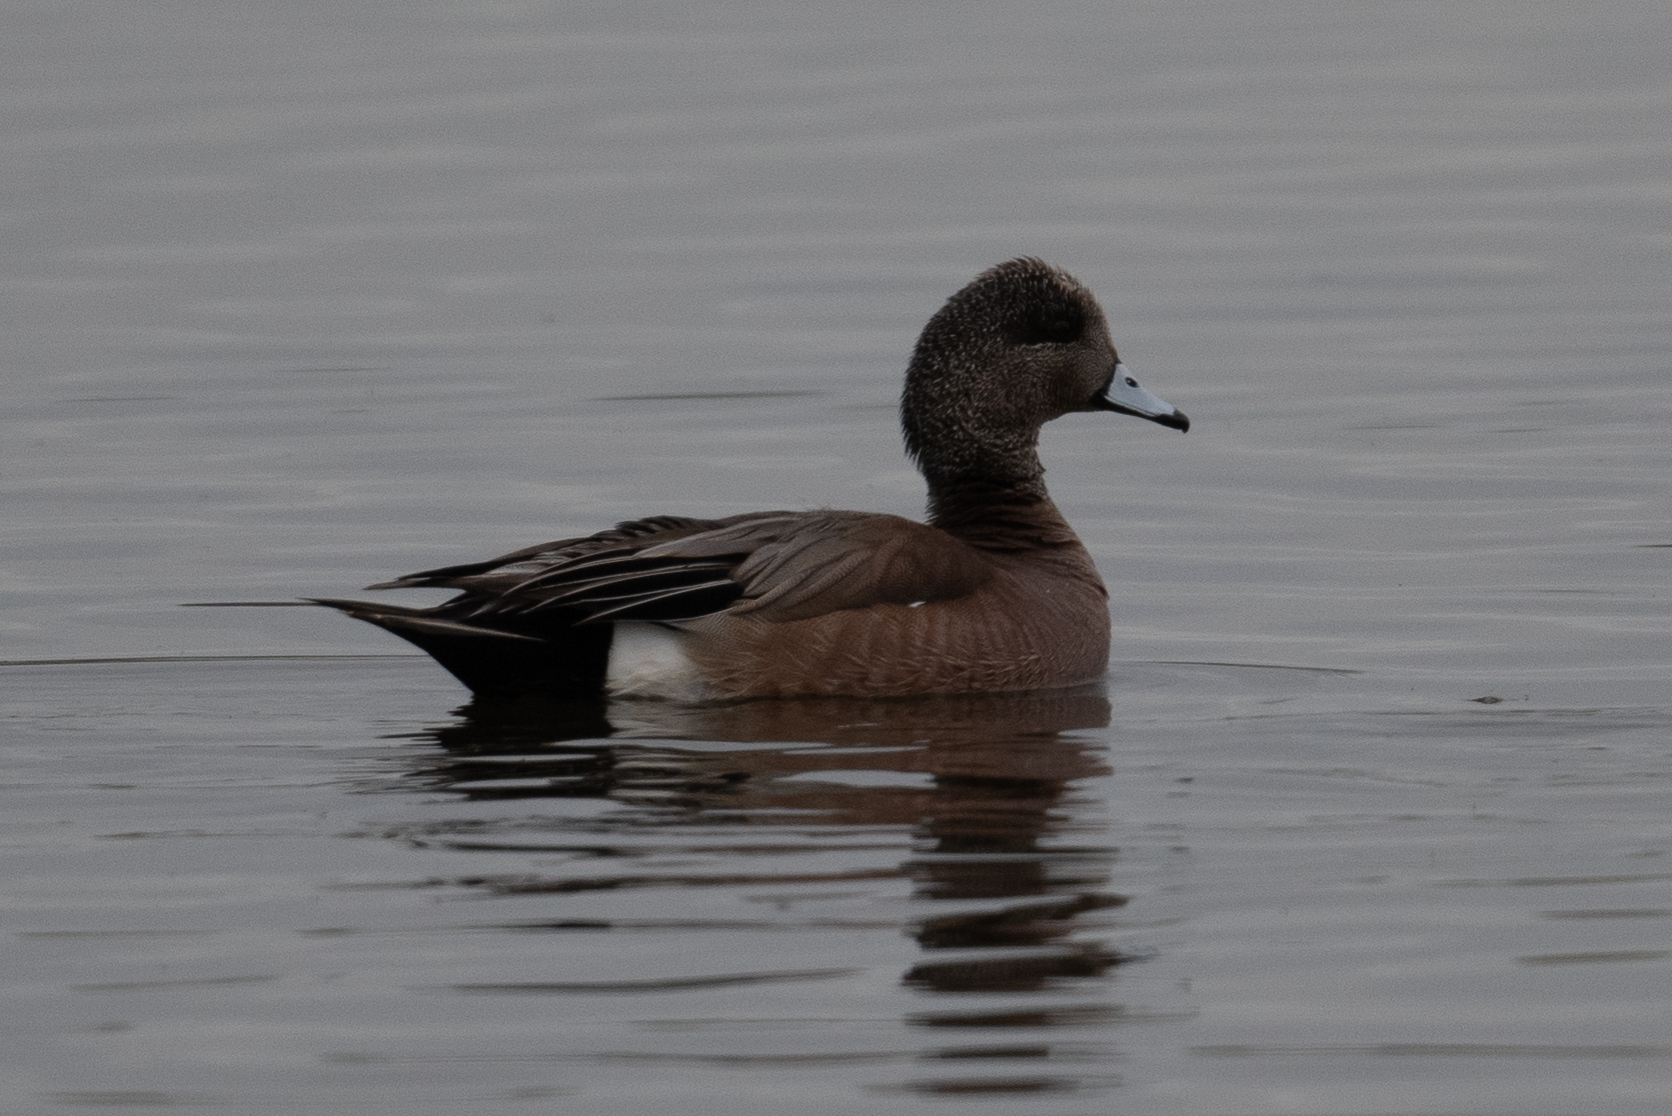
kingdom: Animalia
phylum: Chordata
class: Aves
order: Anseriformes
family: Anatidae
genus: Mareca
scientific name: Mareca americana
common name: American wigeon
